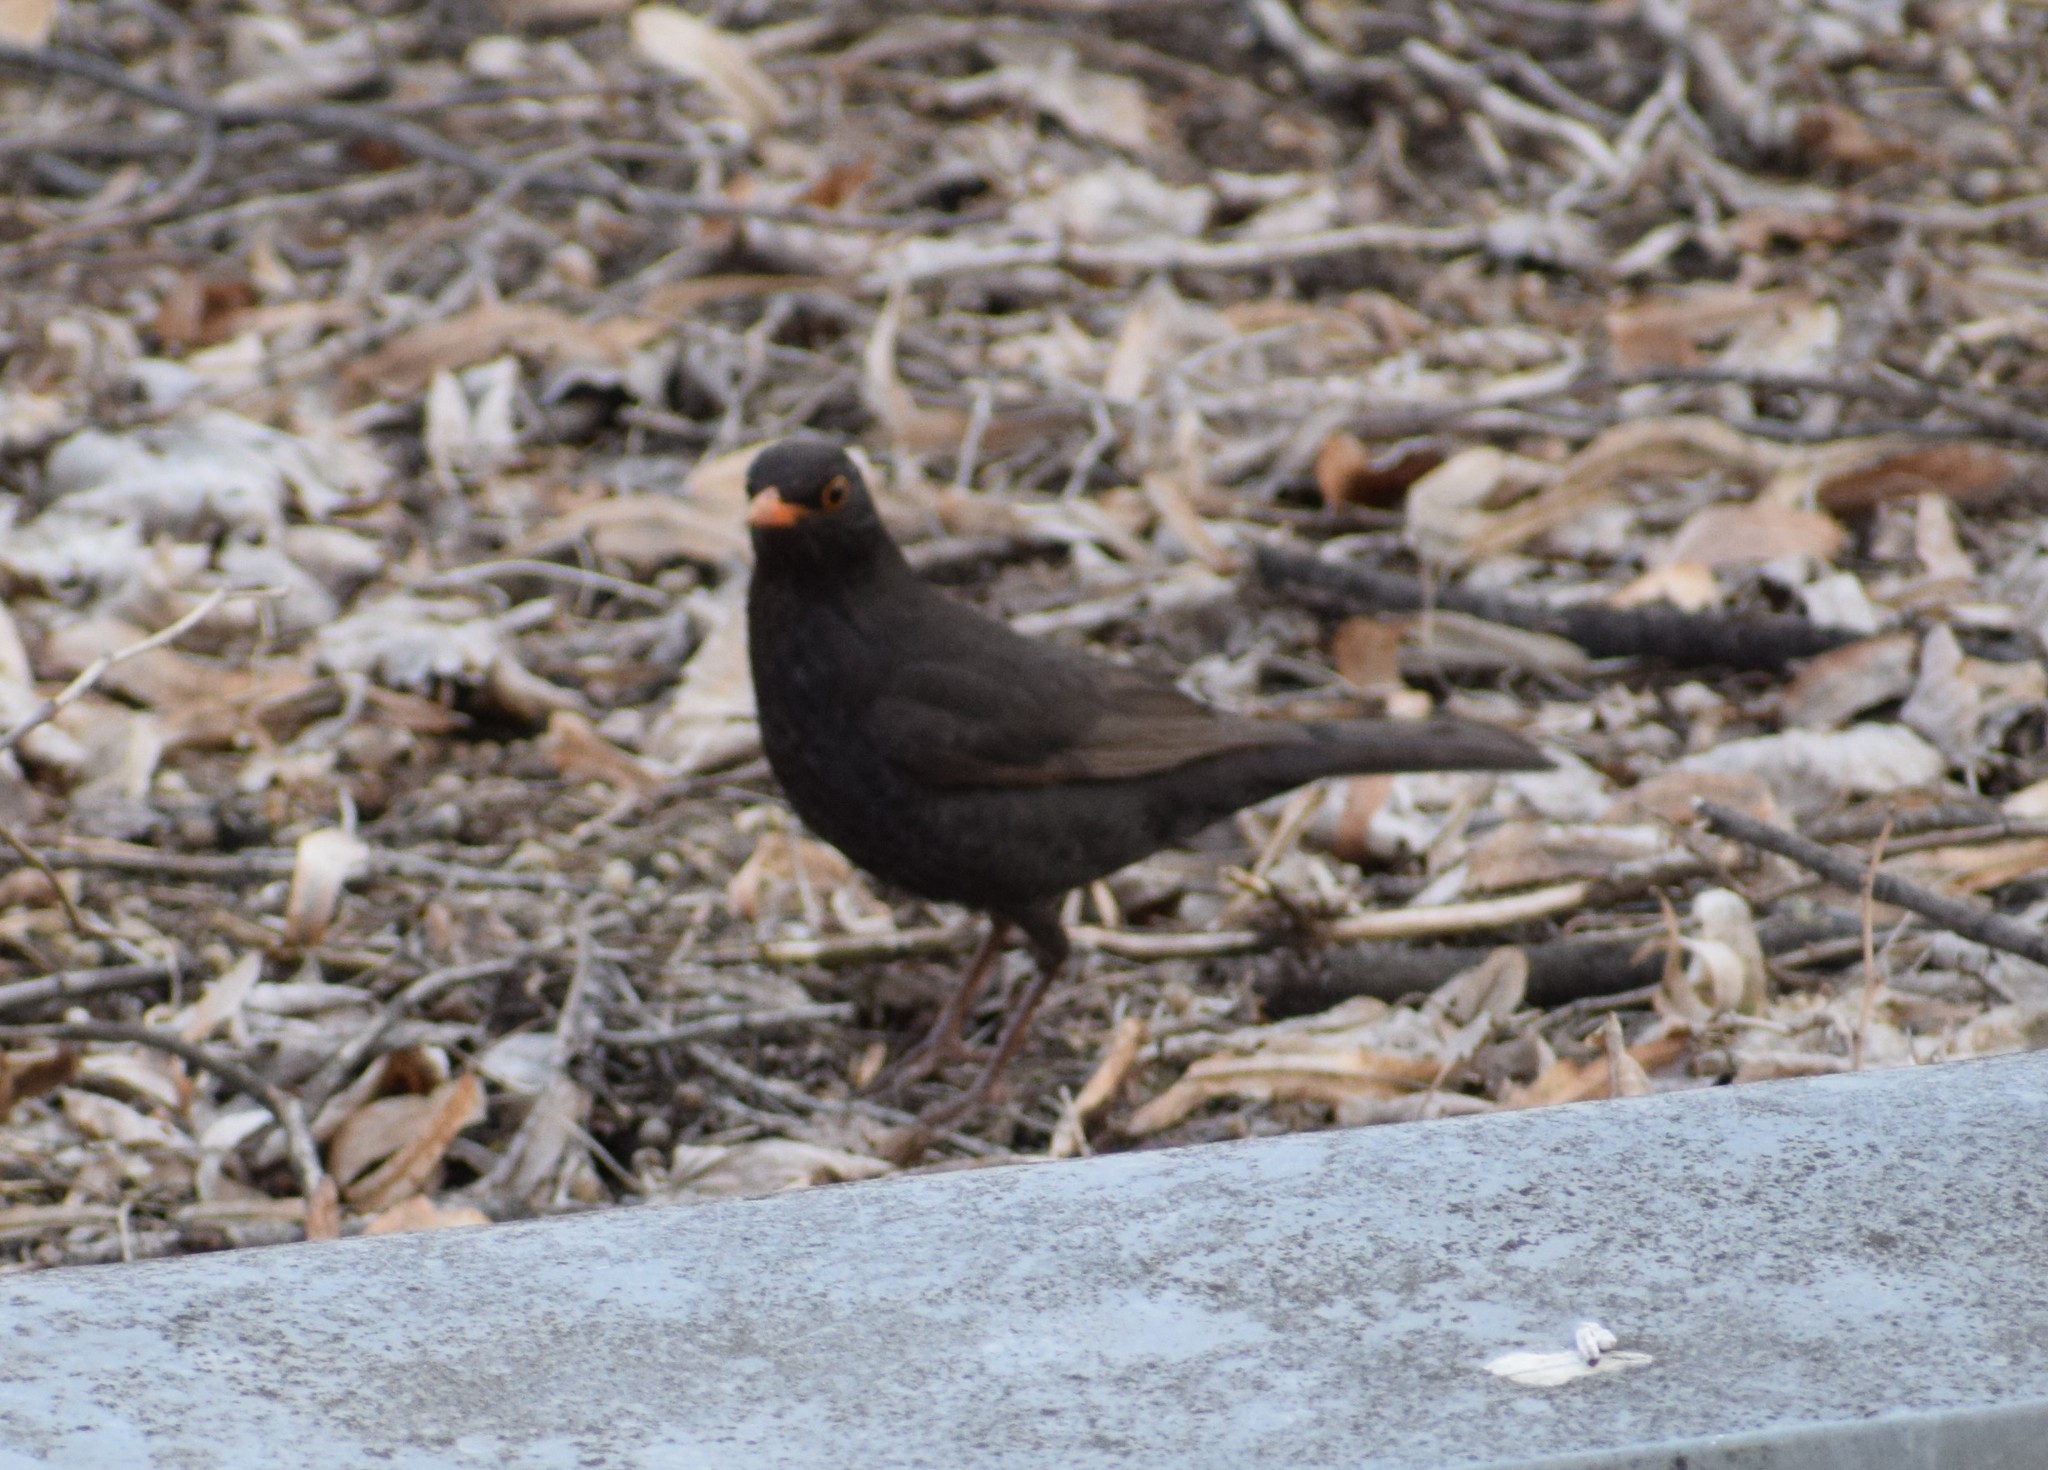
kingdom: Animalia
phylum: Chordata
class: Aves
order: Passeriformes
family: Turdidae
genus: Turdus
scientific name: Turdus merula
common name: Common blackbird
